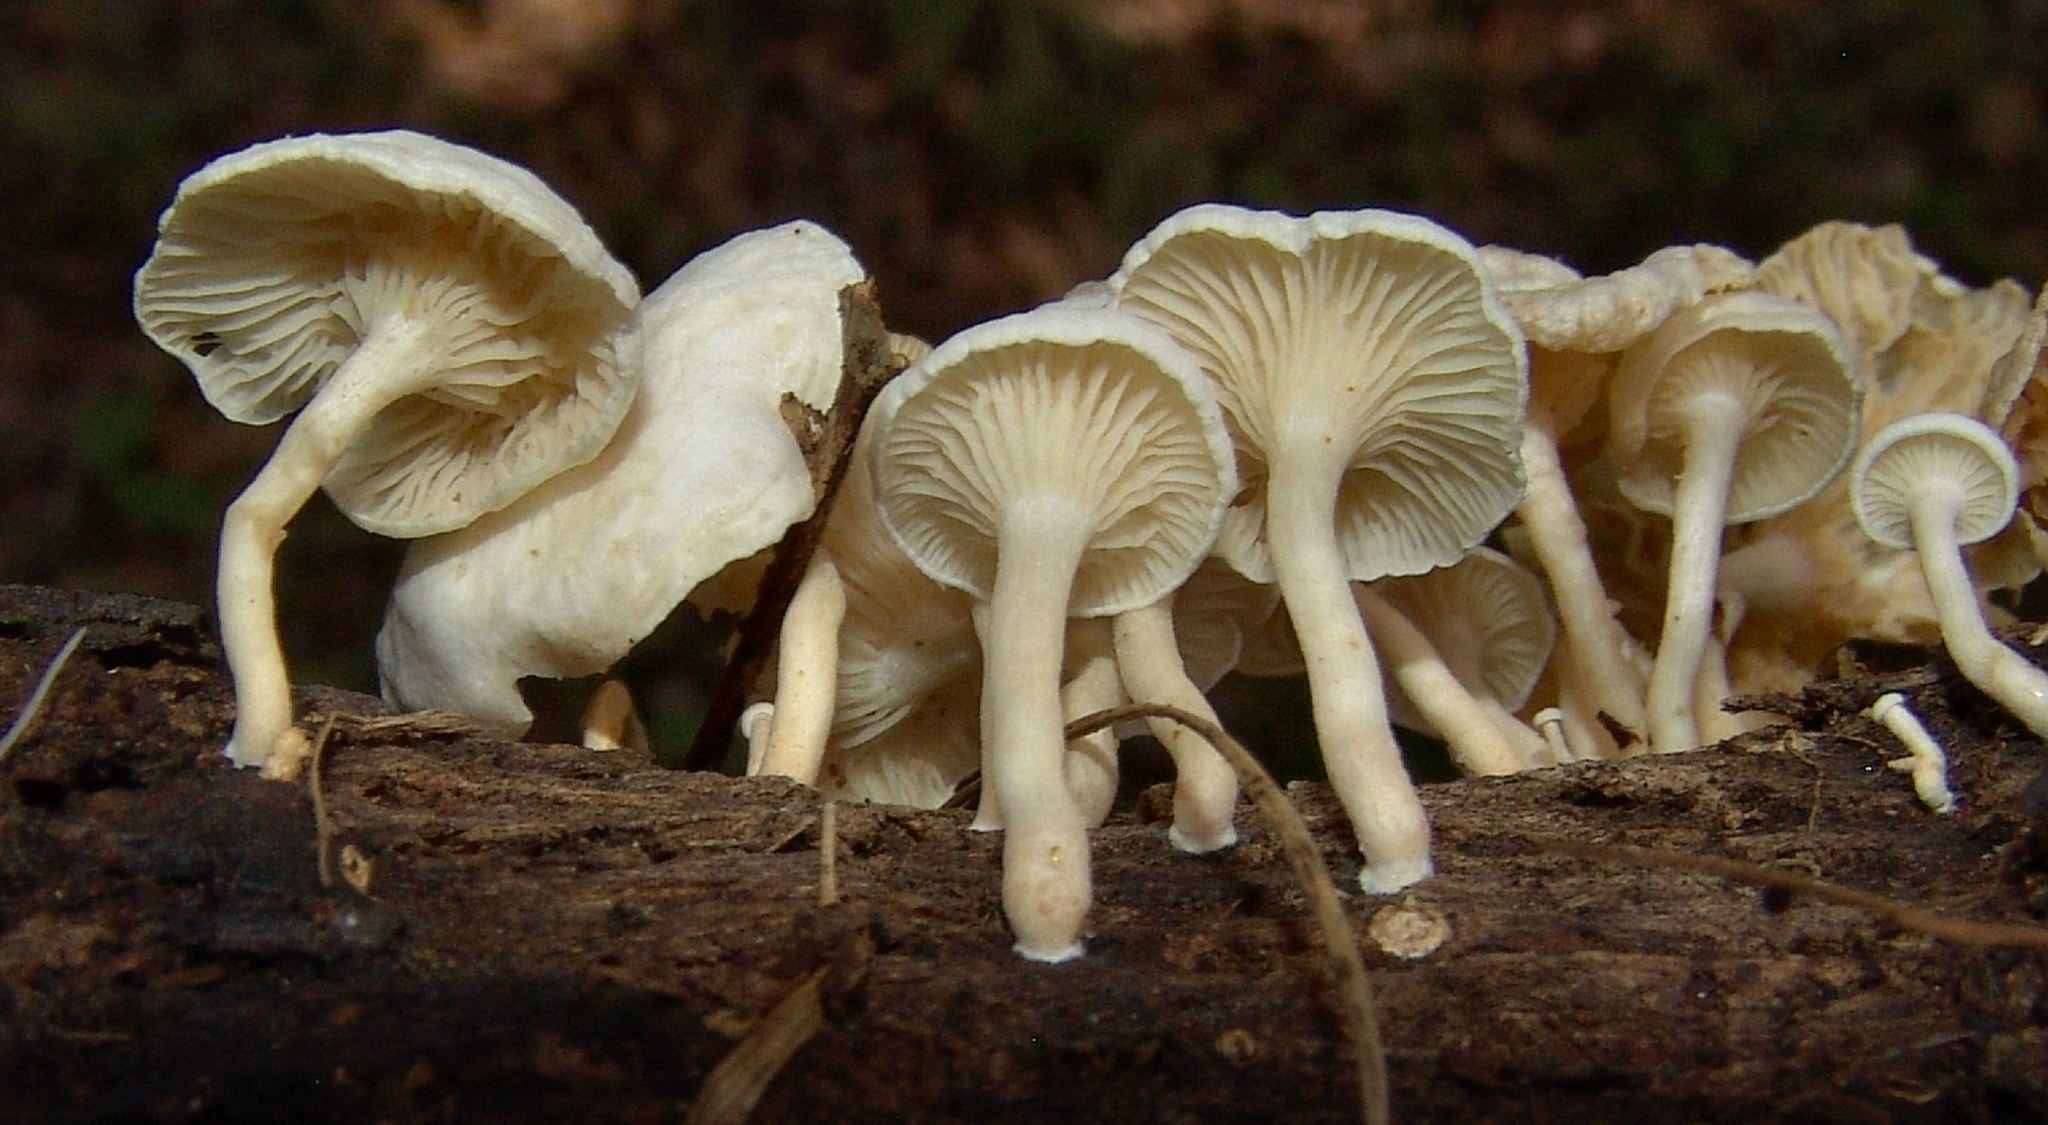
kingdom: Fungi
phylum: Basidiomycota
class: Agaricomycetes
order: Agaricales
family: Tricholomataceae
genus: Clitocybe
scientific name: Clitocybe peralbida
